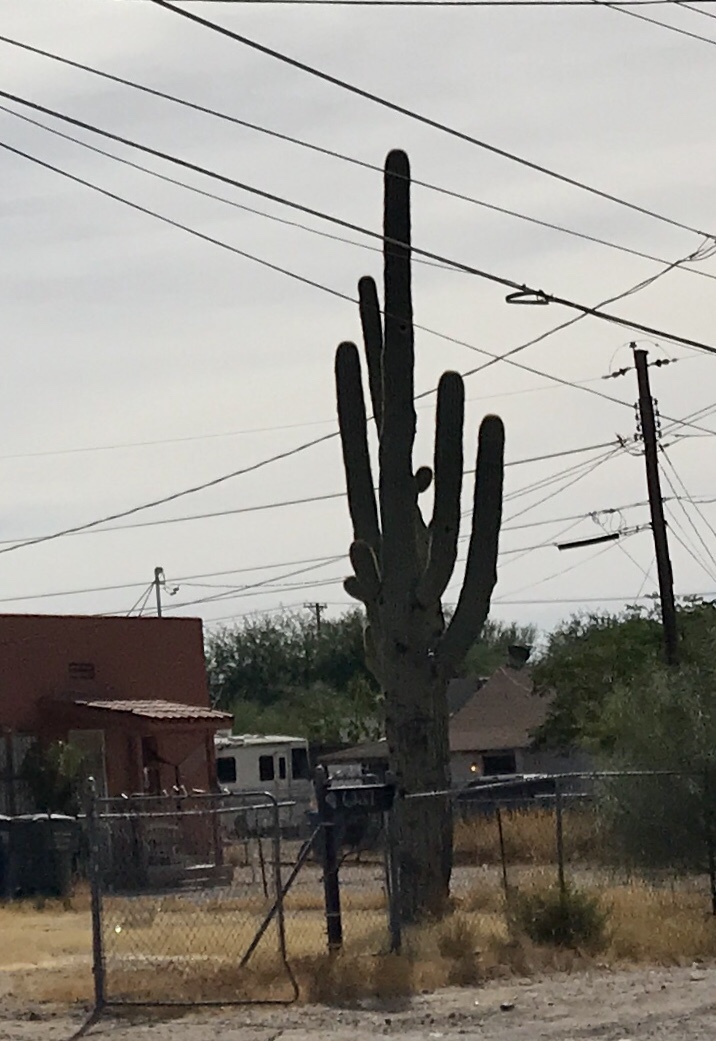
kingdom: Plantae
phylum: Tracheophyta
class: Magnoliopsida
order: Caryophyllales
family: Cactaceae
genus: Carnegiea
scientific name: Carnegiea gigantea
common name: Saguaro
